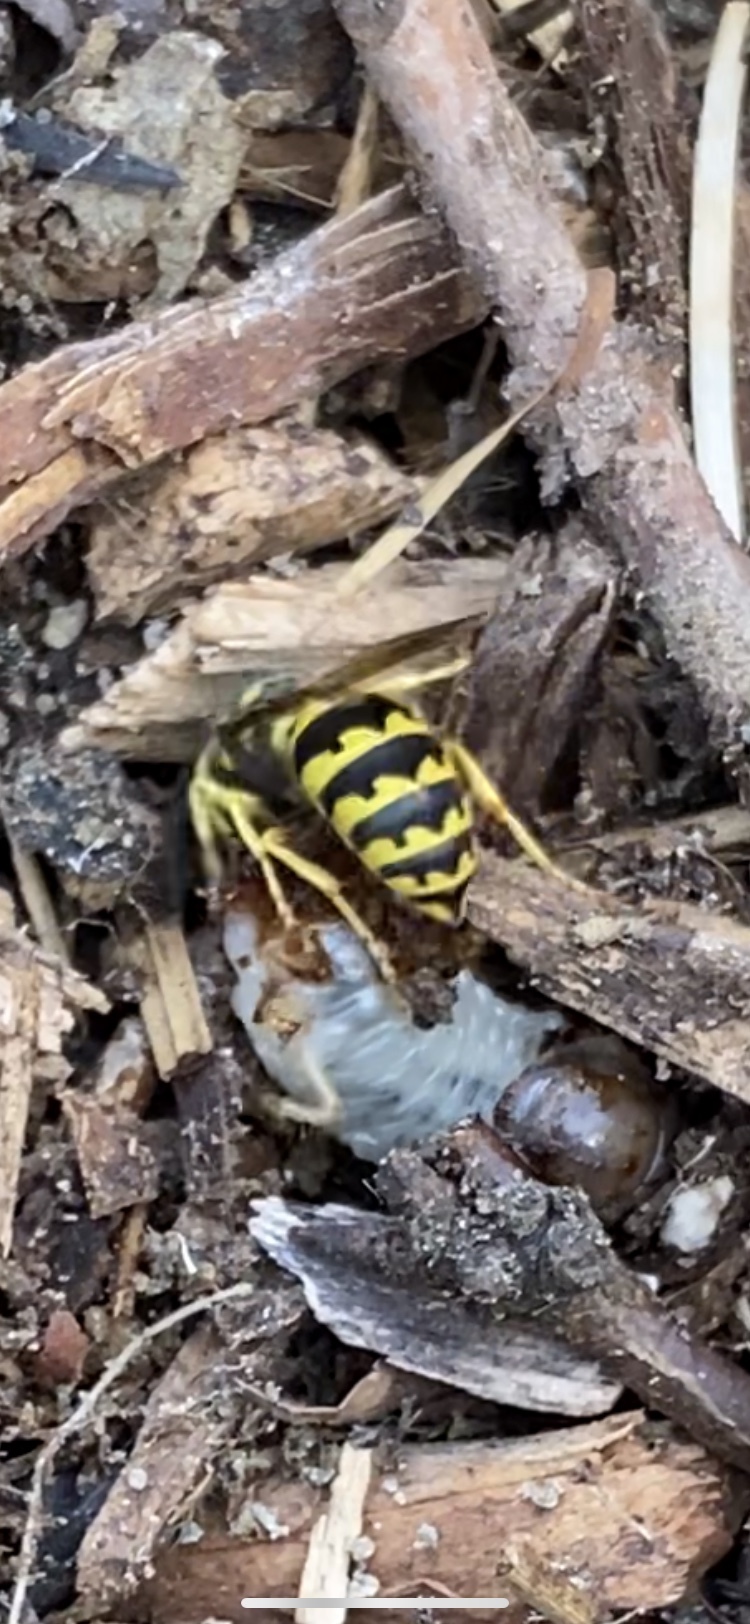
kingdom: Animalia
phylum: Arthropoda
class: Insecta
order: Hymenoptera
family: Vespidae
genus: Vespula
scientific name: Vespula pensylvanica
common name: Western yellowjacket
